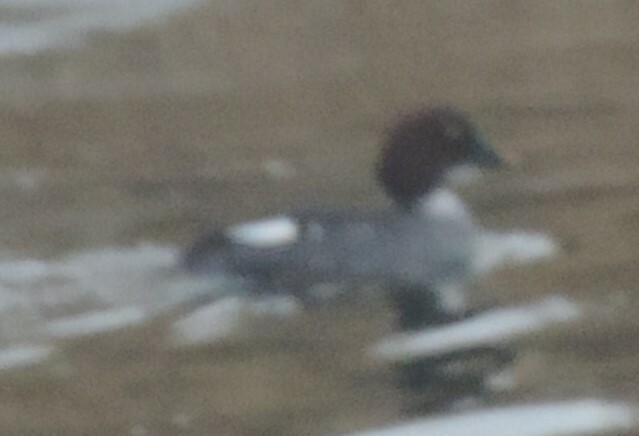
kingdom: Animalia
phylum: Chordata
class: Aves
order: Anseriformes
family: Anatidae
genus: Bucephala
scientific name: Bucephala clangula
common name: Common goldeneye
